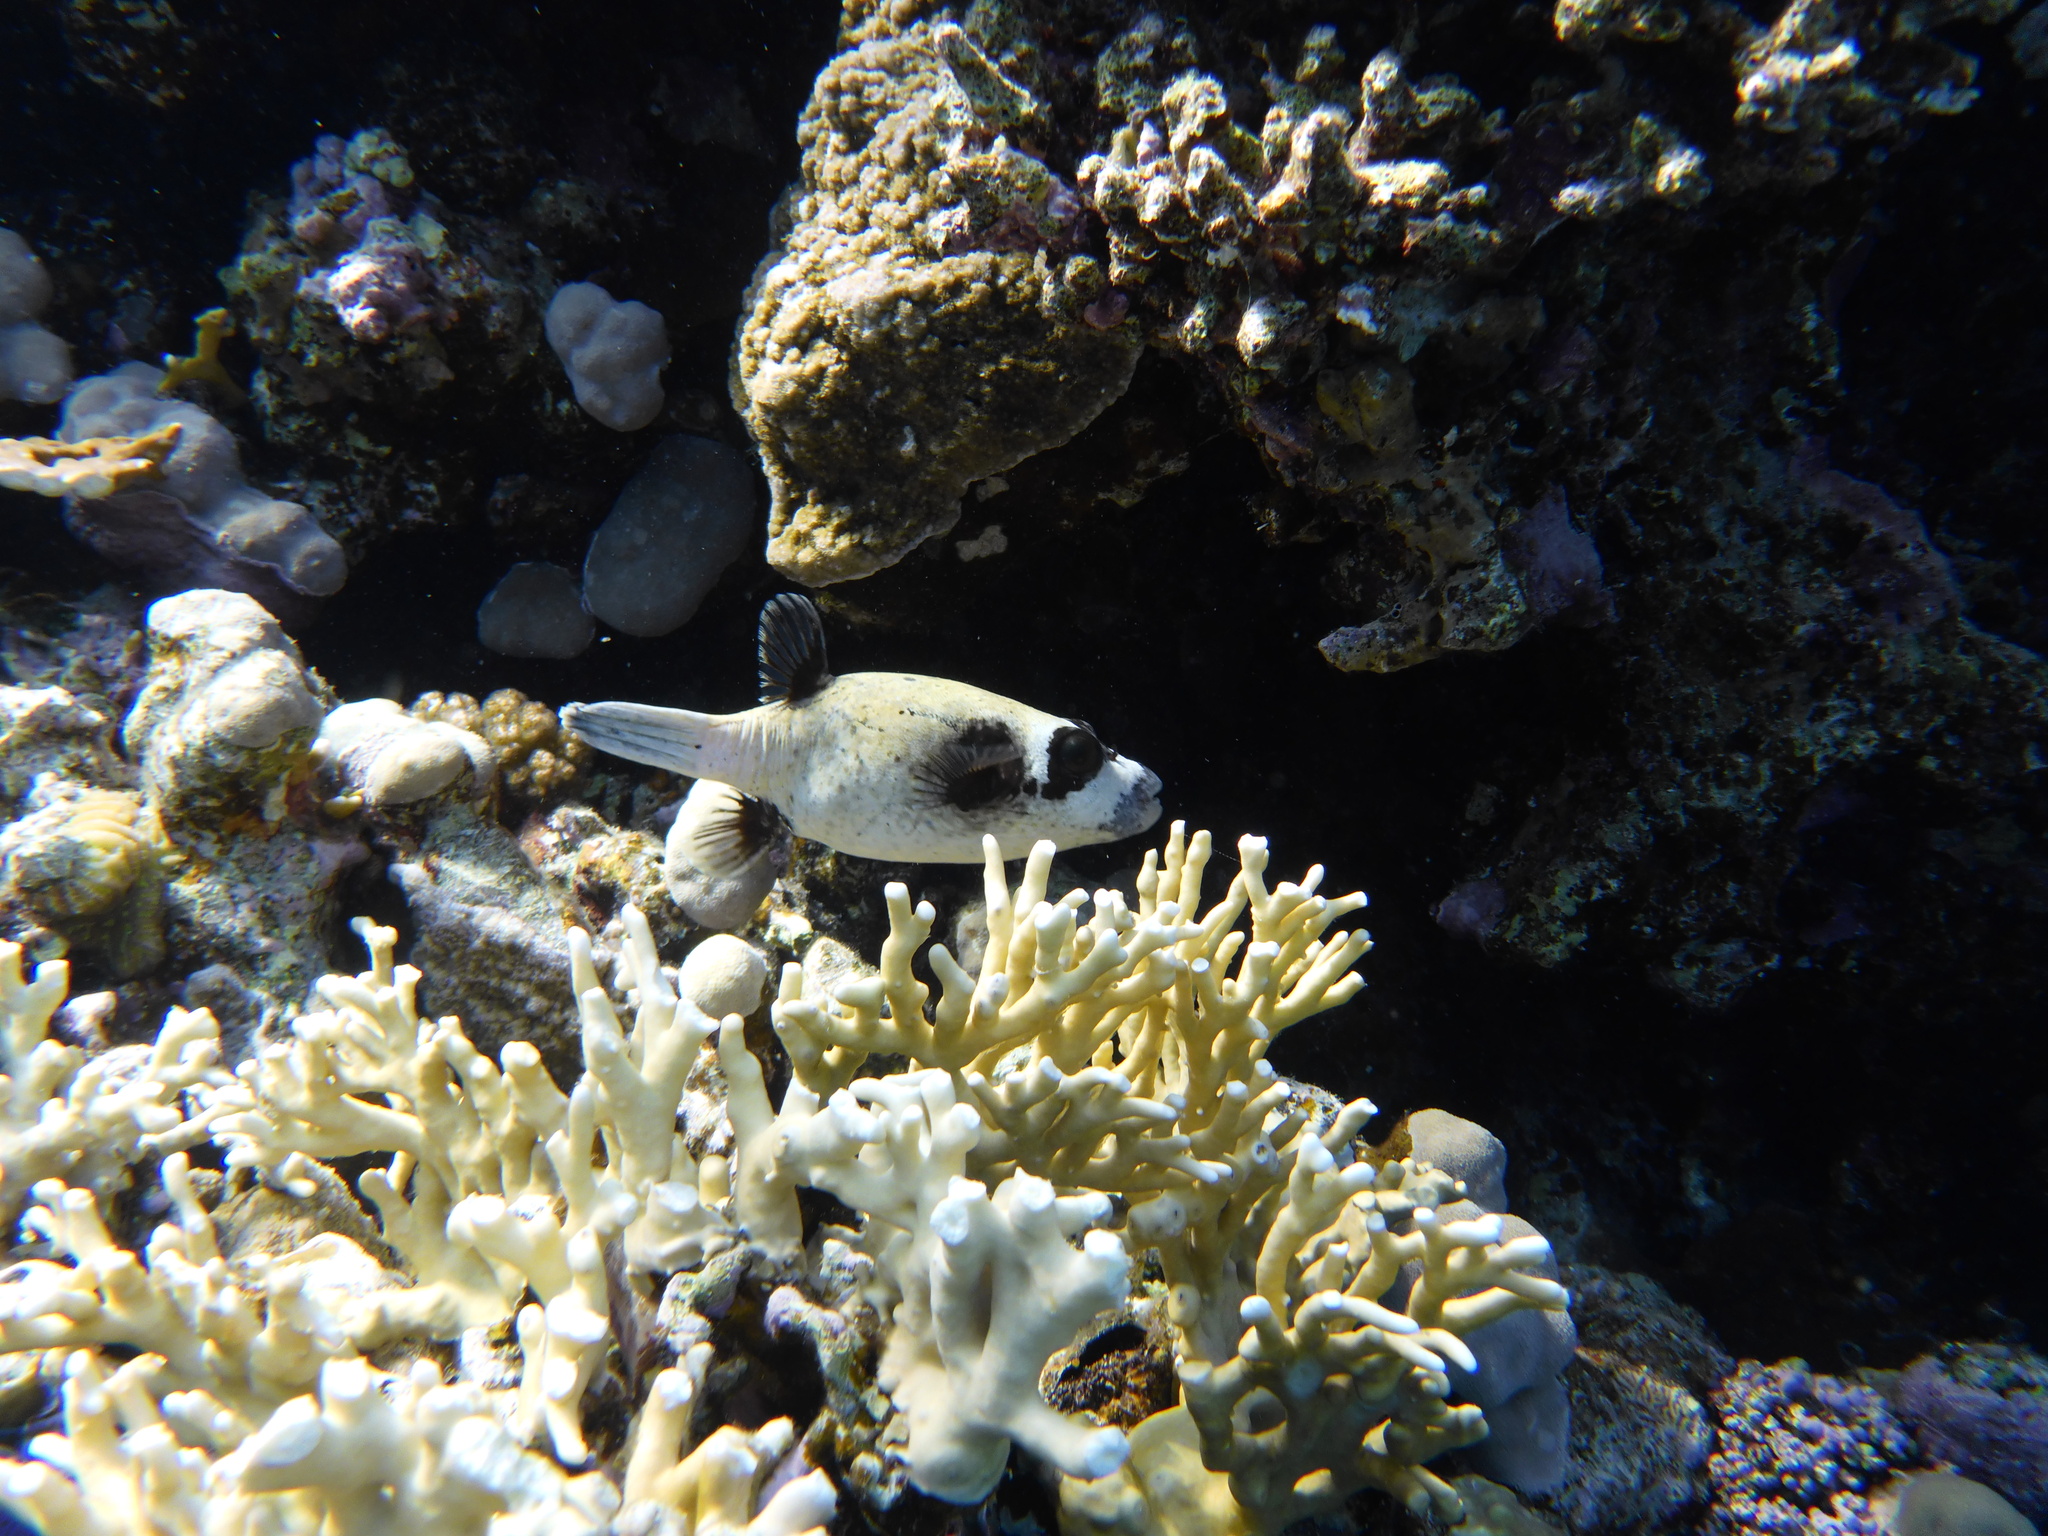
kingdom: Animalia
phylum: Chordata
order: Tetraodontiformes
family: Tetraodontidae
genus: Arothron
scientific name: Arothron diadematus
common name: Masked puffer
